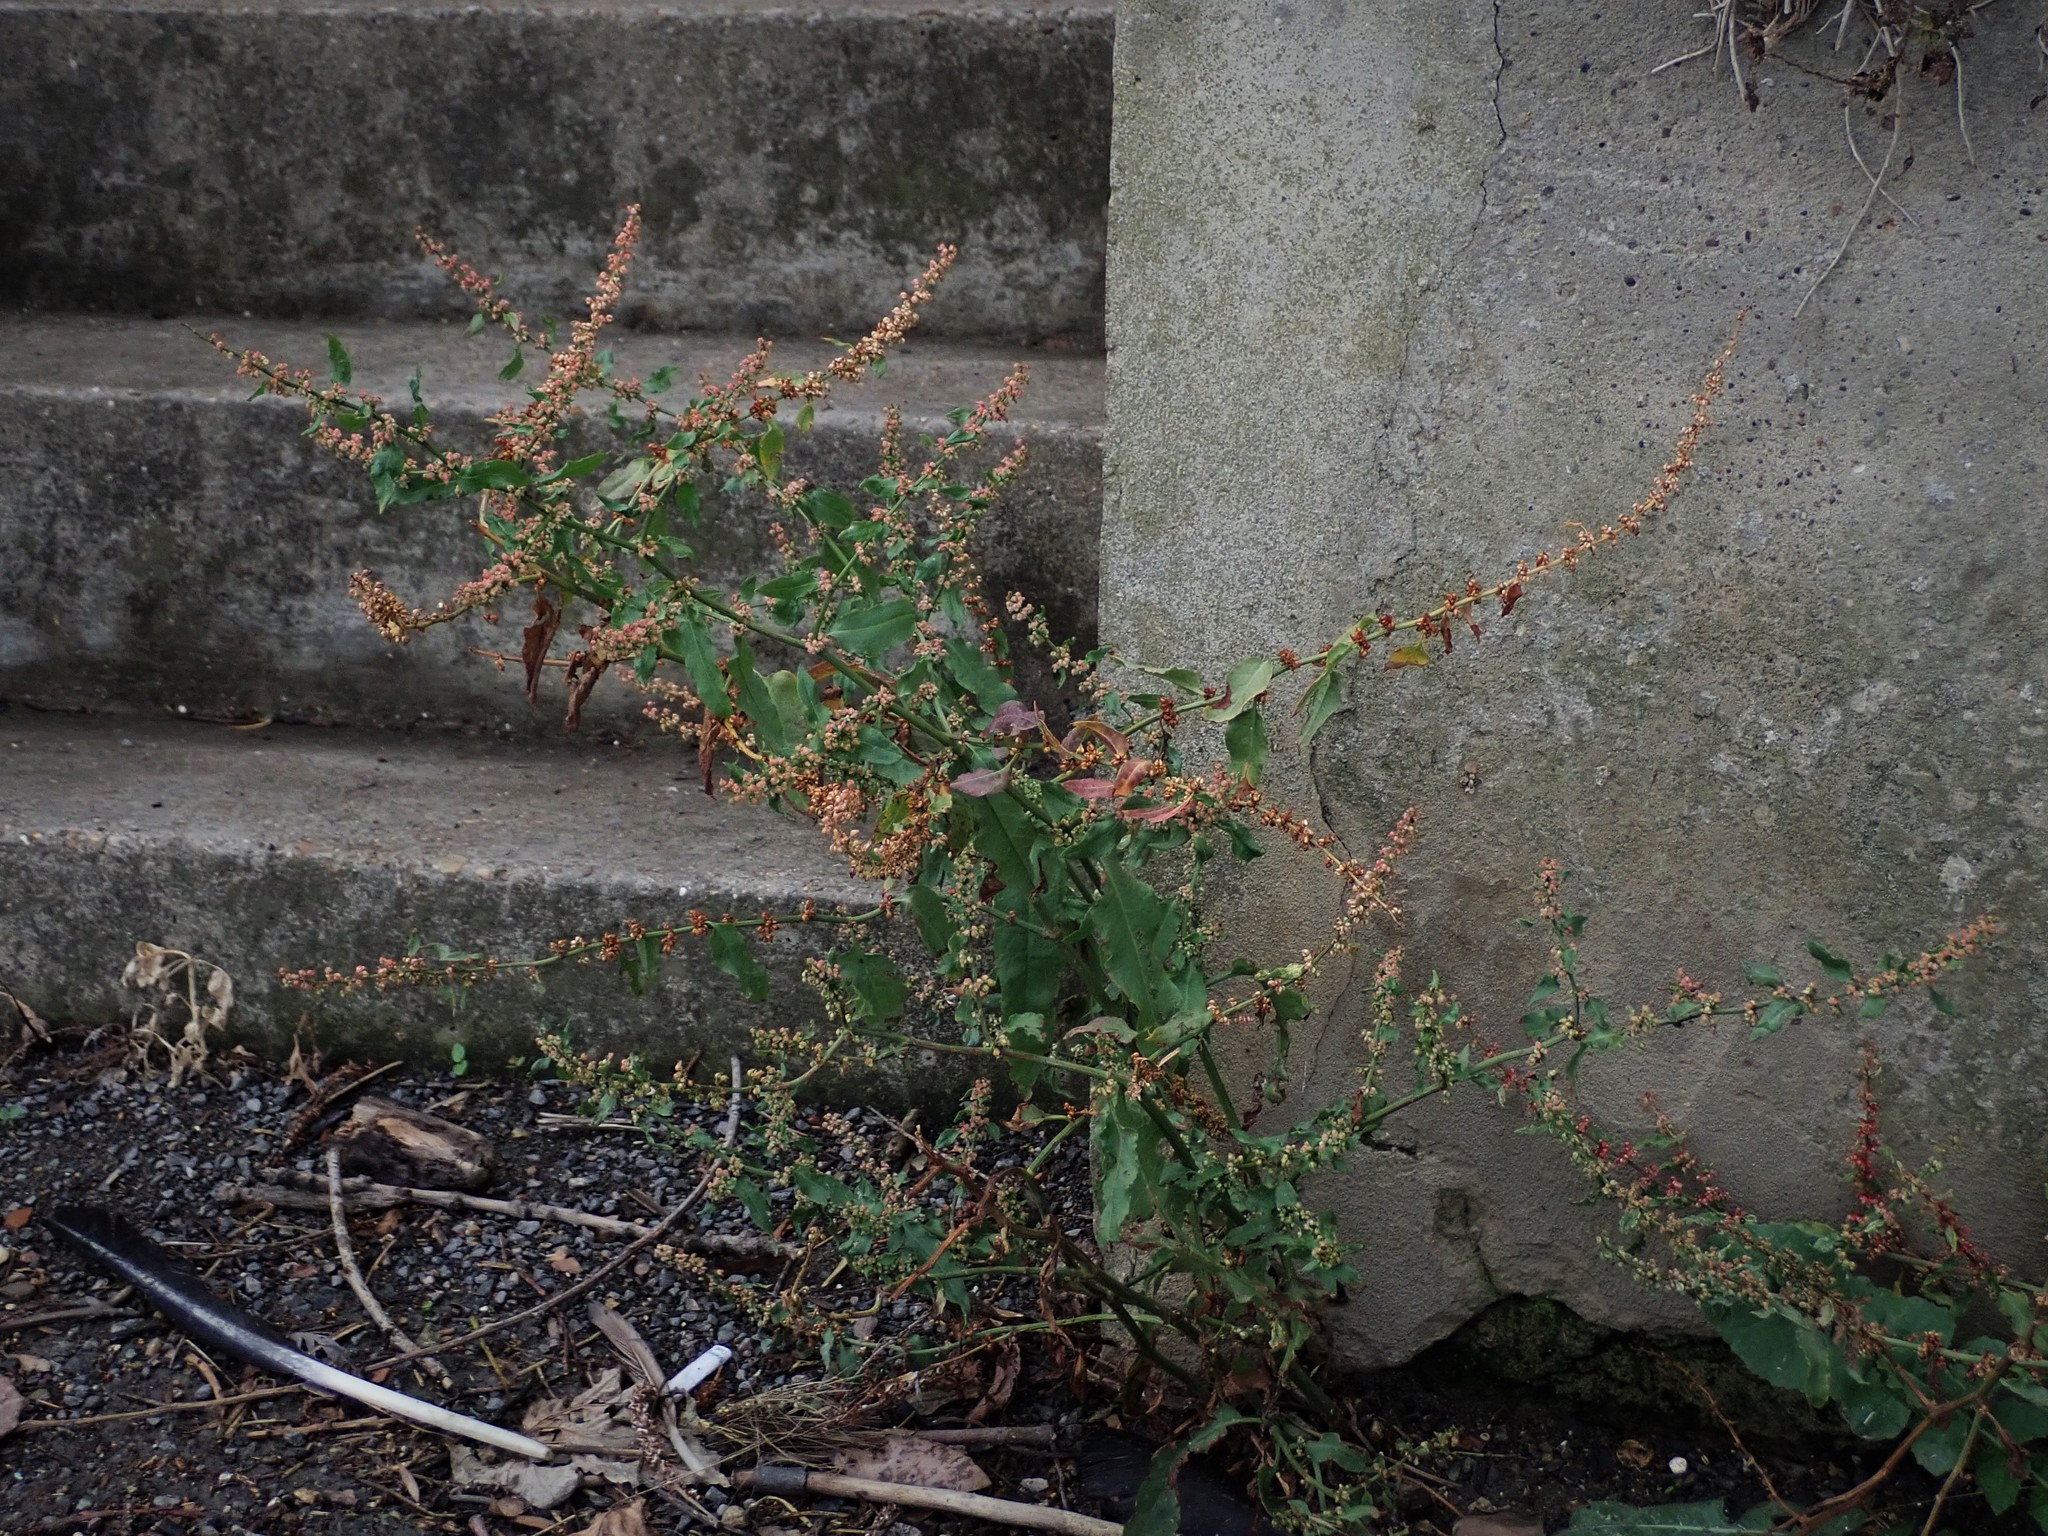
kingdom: Plantae
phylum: Tracheophyta
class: Magnoliopsida
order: Caryophyllales
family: Polygonaceae
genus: Rumex
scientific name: Rumex conglomeratus
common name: Clustered dock
